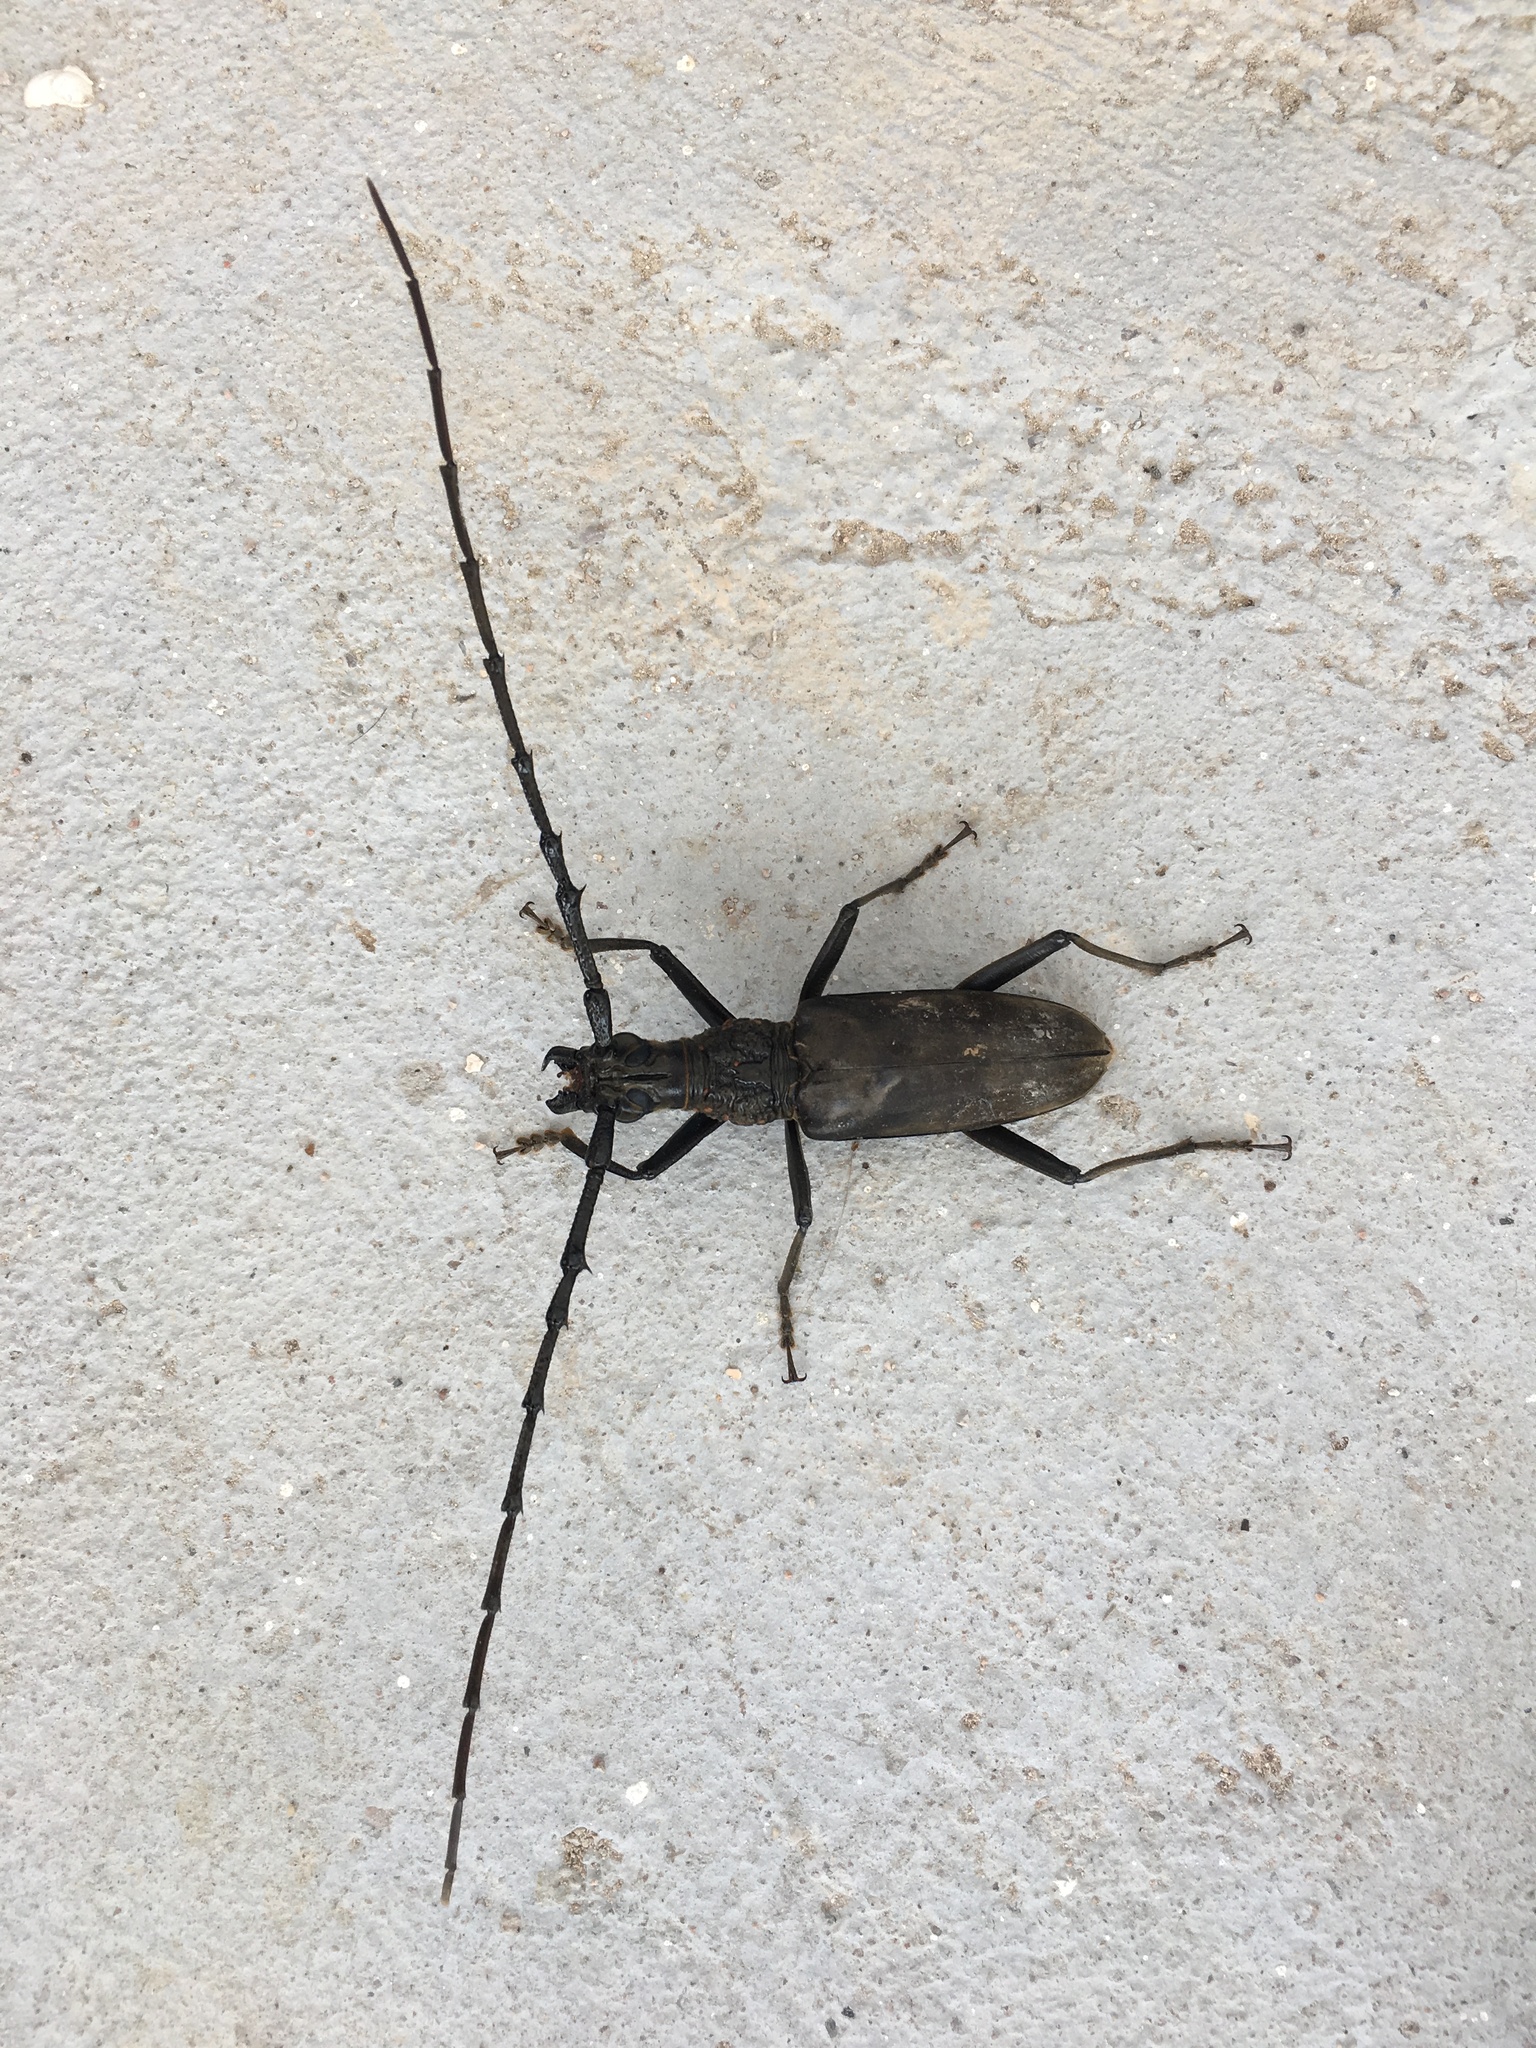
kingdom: Animalia
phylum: Arthropoda
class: Insecta
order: Coleoptera
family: Cerambycidae
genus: Hoplocerambyx
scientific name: Hoplocerambyx spinicornis
